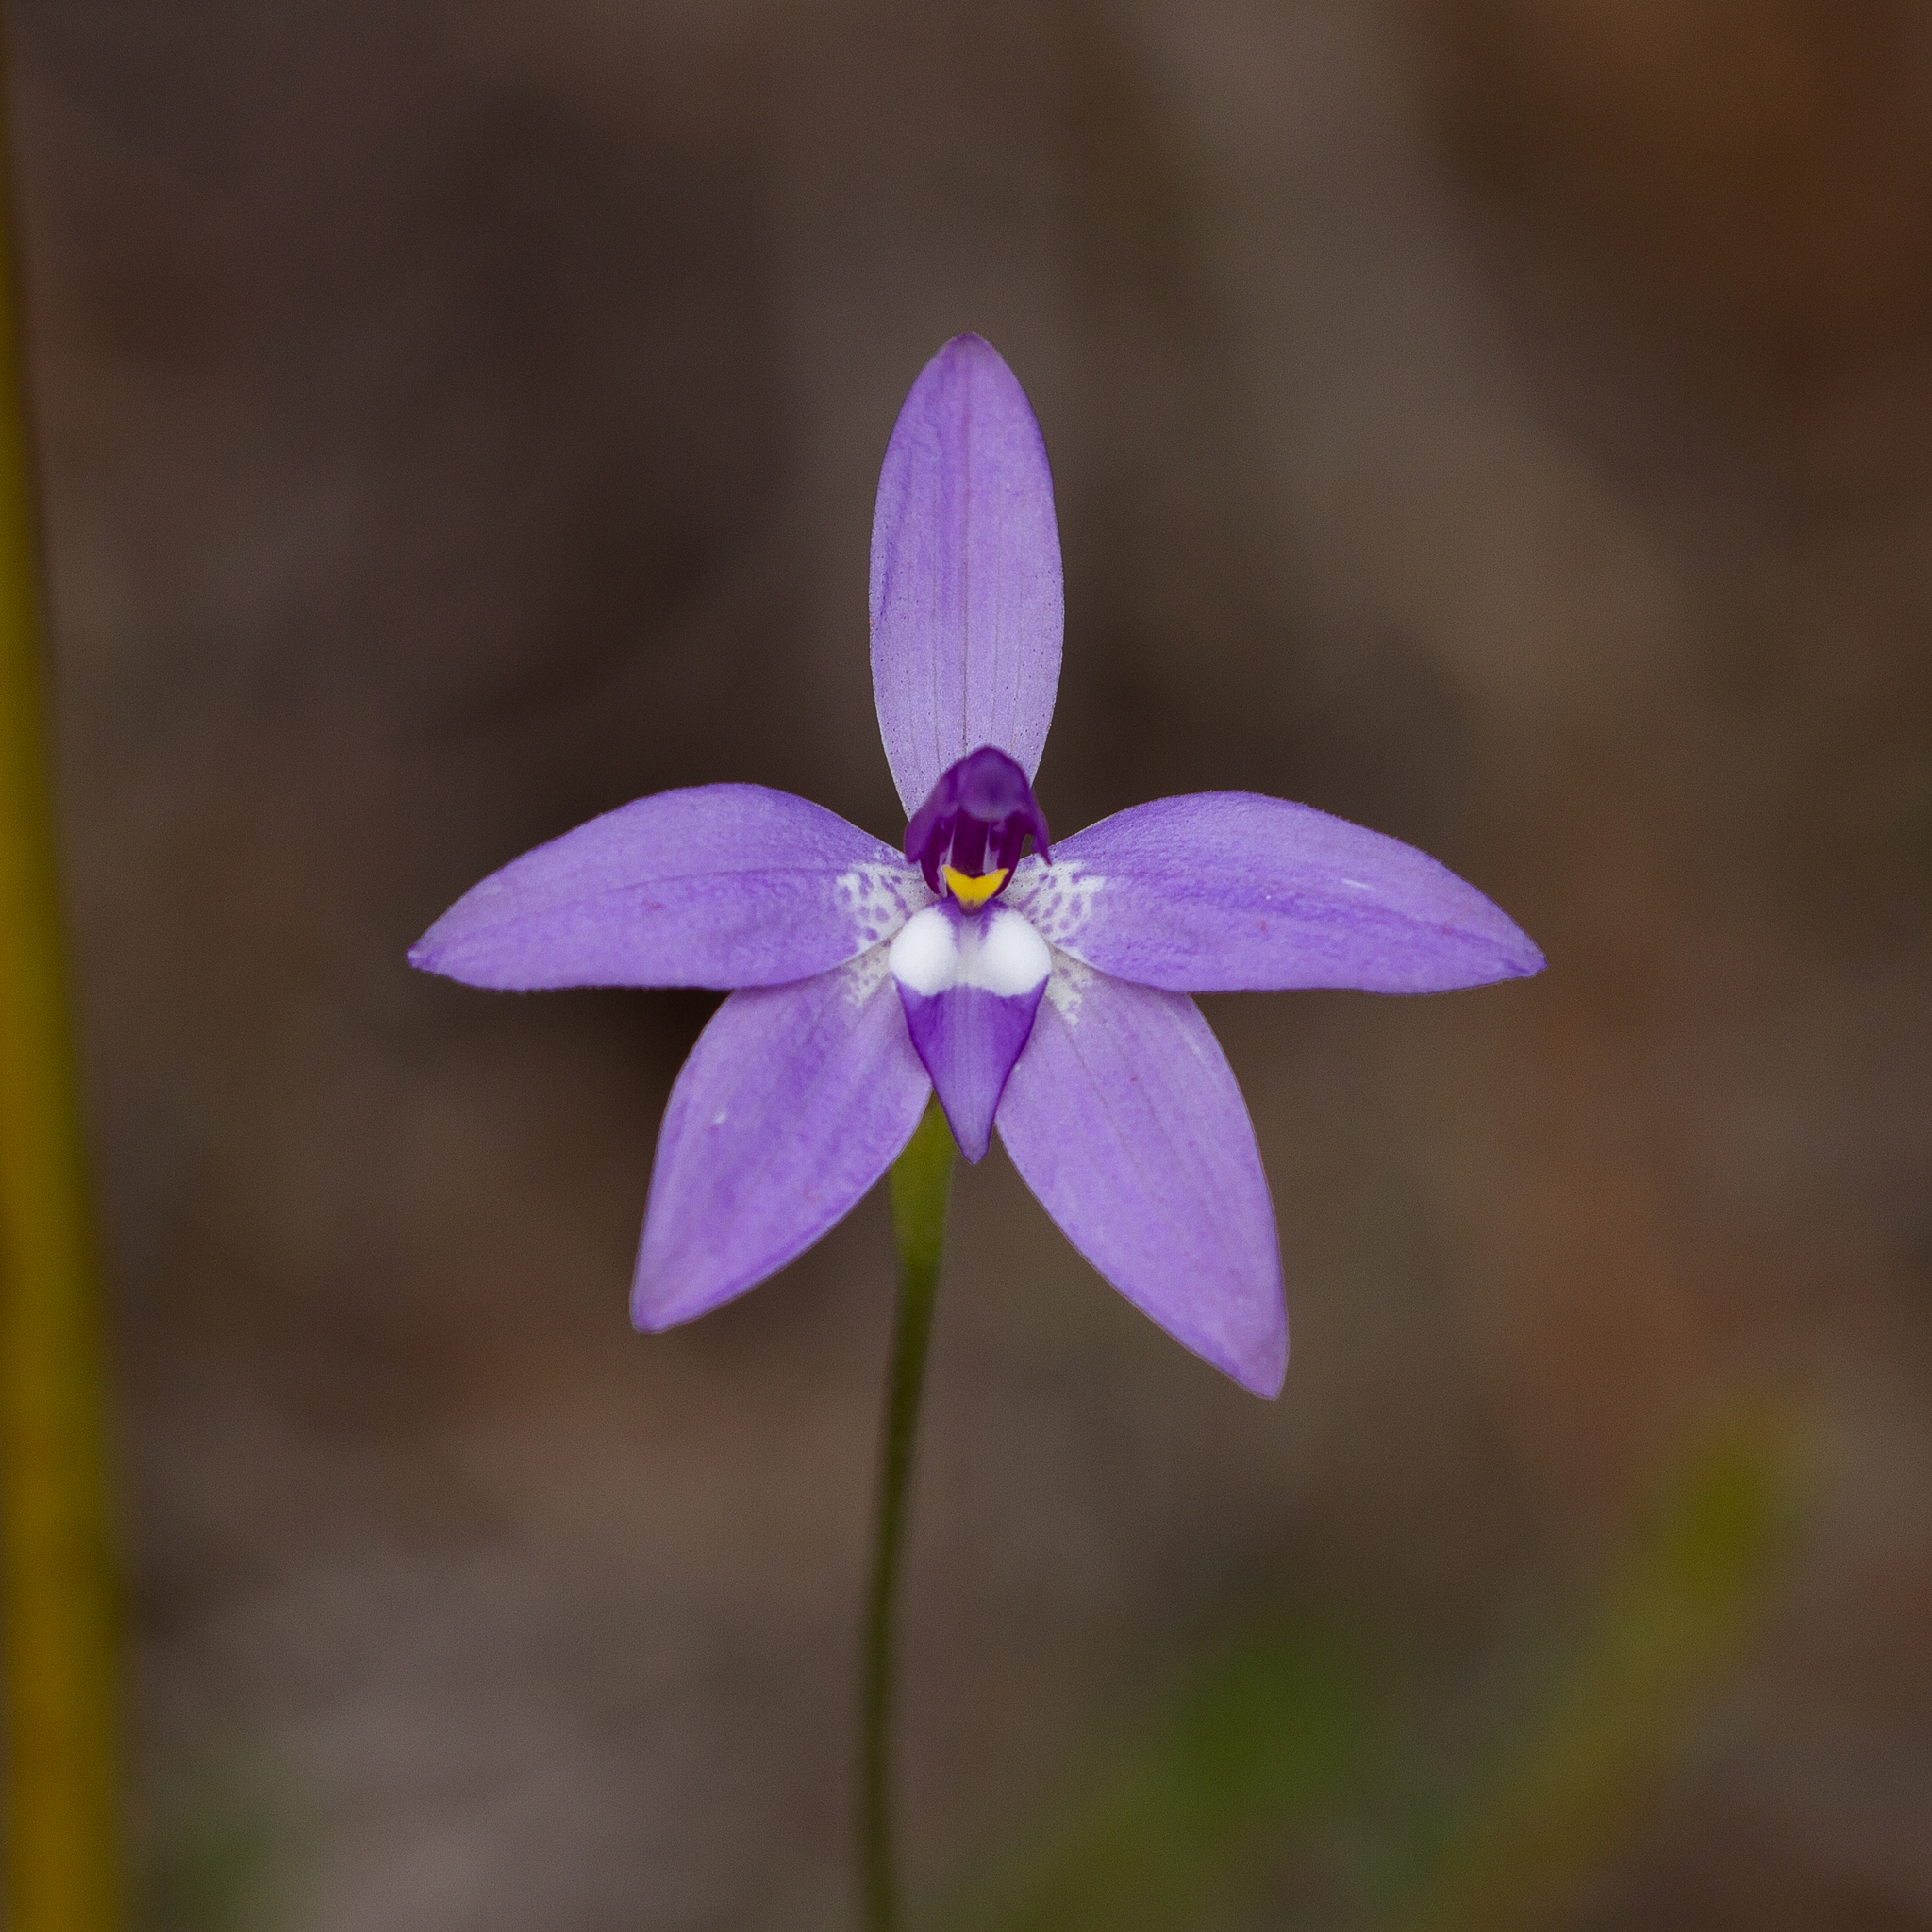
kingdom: Plantae
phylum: Tracheophyta
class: Liliopsida
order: Asparagales
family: Orchidaceae
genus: Caladenia
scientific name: Caladenia major
